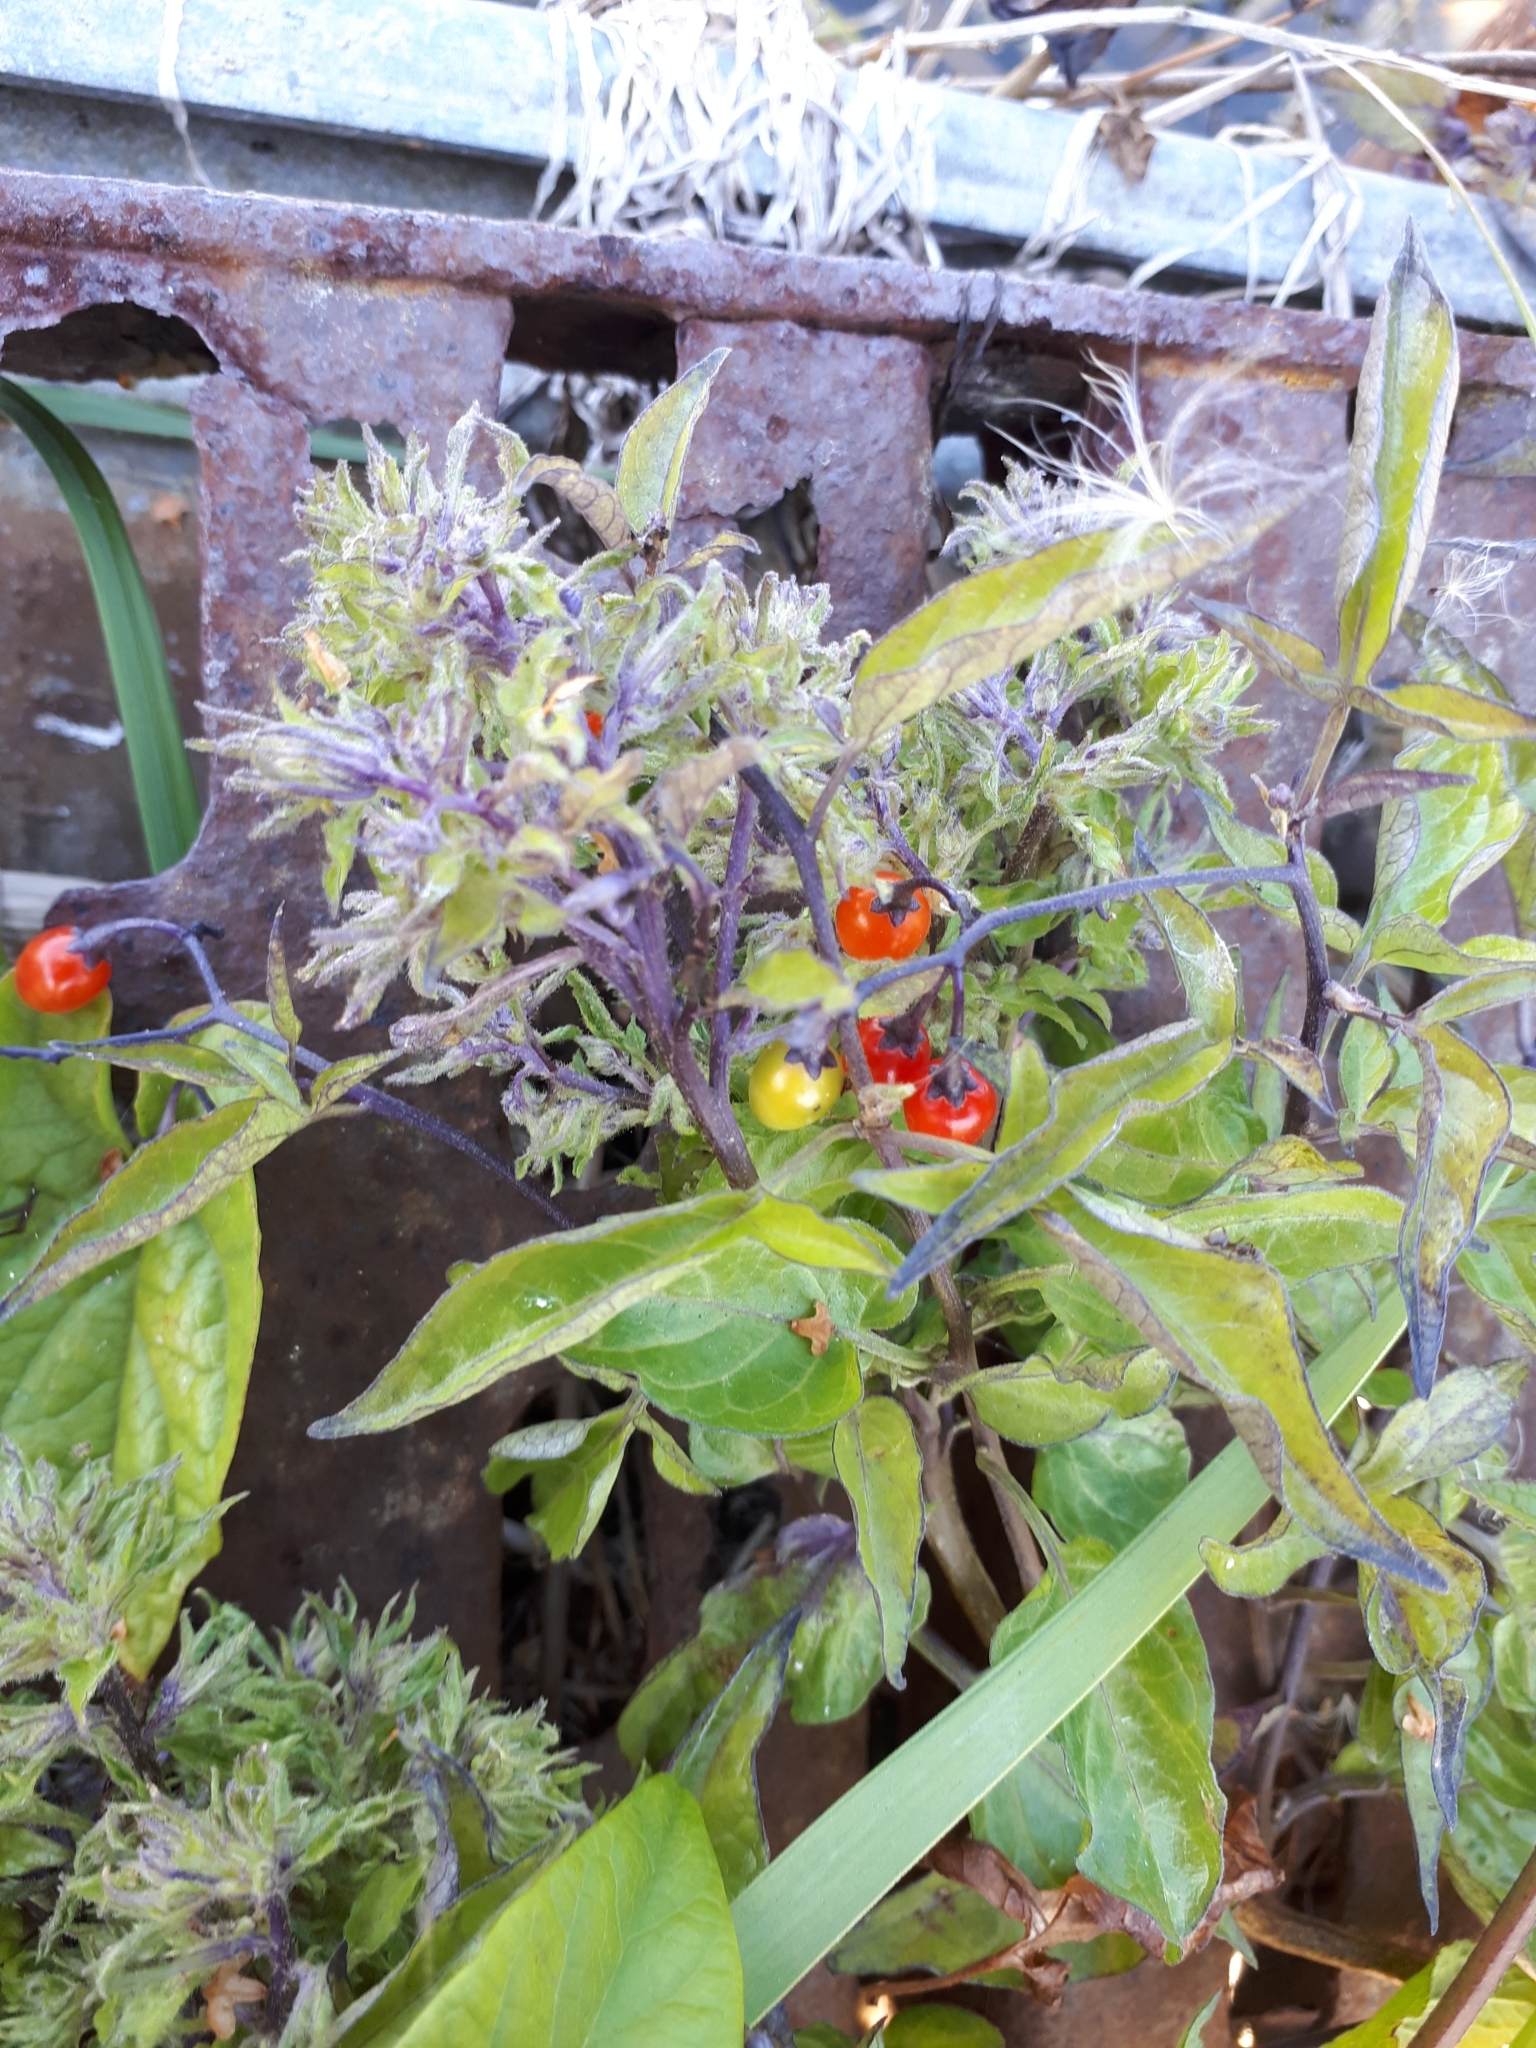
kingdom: Plantae
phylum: Tracheophyta
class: Magnoliopsida
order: Solanales
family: Solanaceae
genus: Solanum
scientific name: Solanum dulcamara
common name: Climbing nightshade
